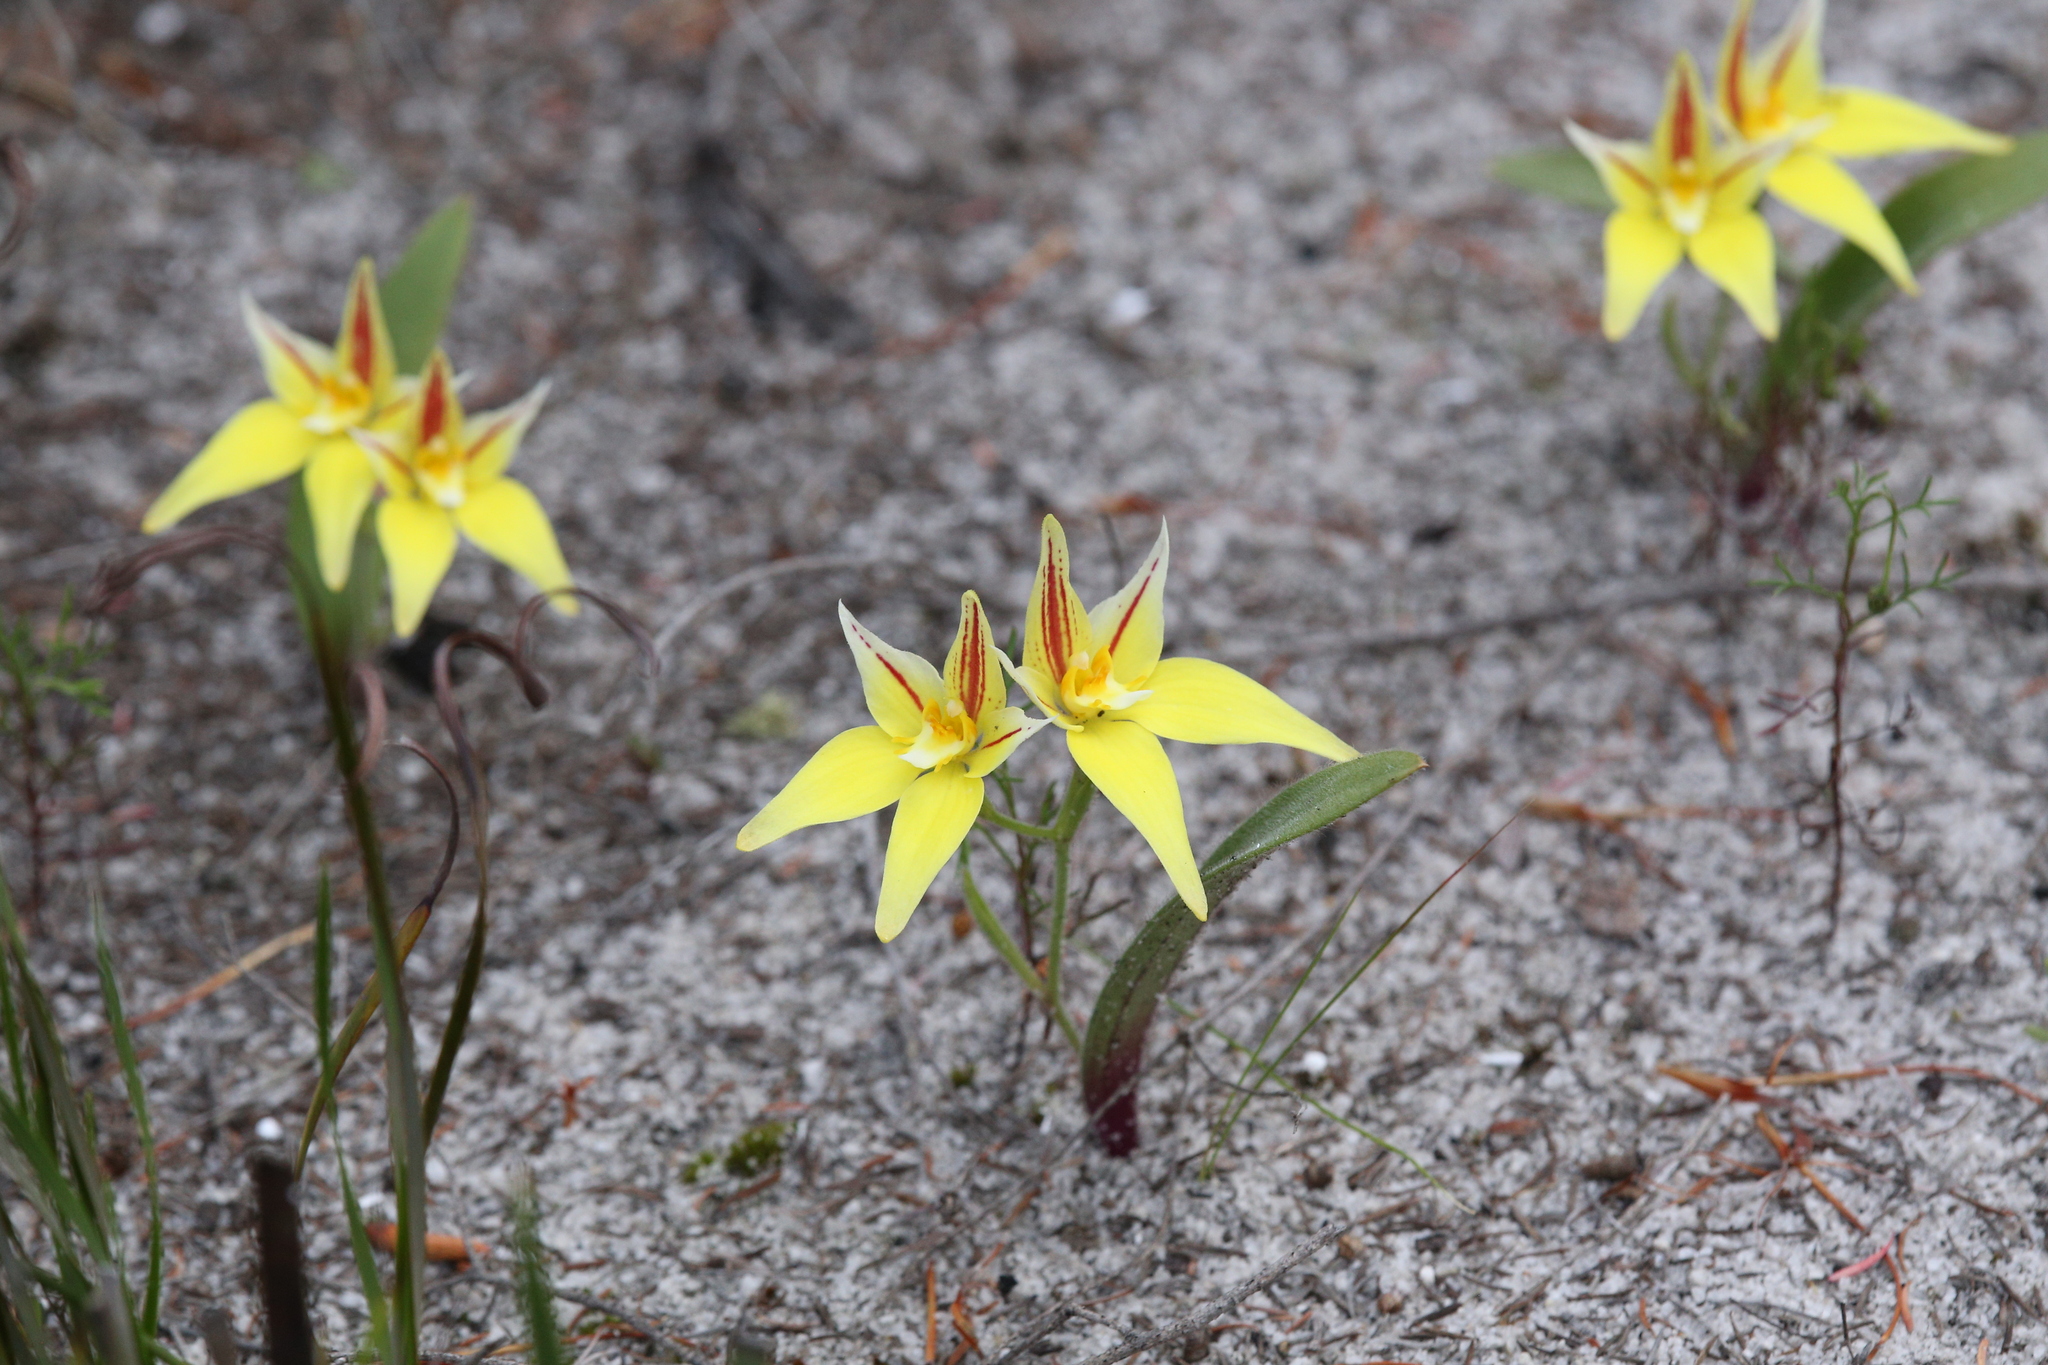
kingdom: Plantae
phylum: Tracheophyta
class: Liliopsida
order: Asparagales
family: Orchidaceae
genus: Caladenia
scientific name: Caladenia flava
